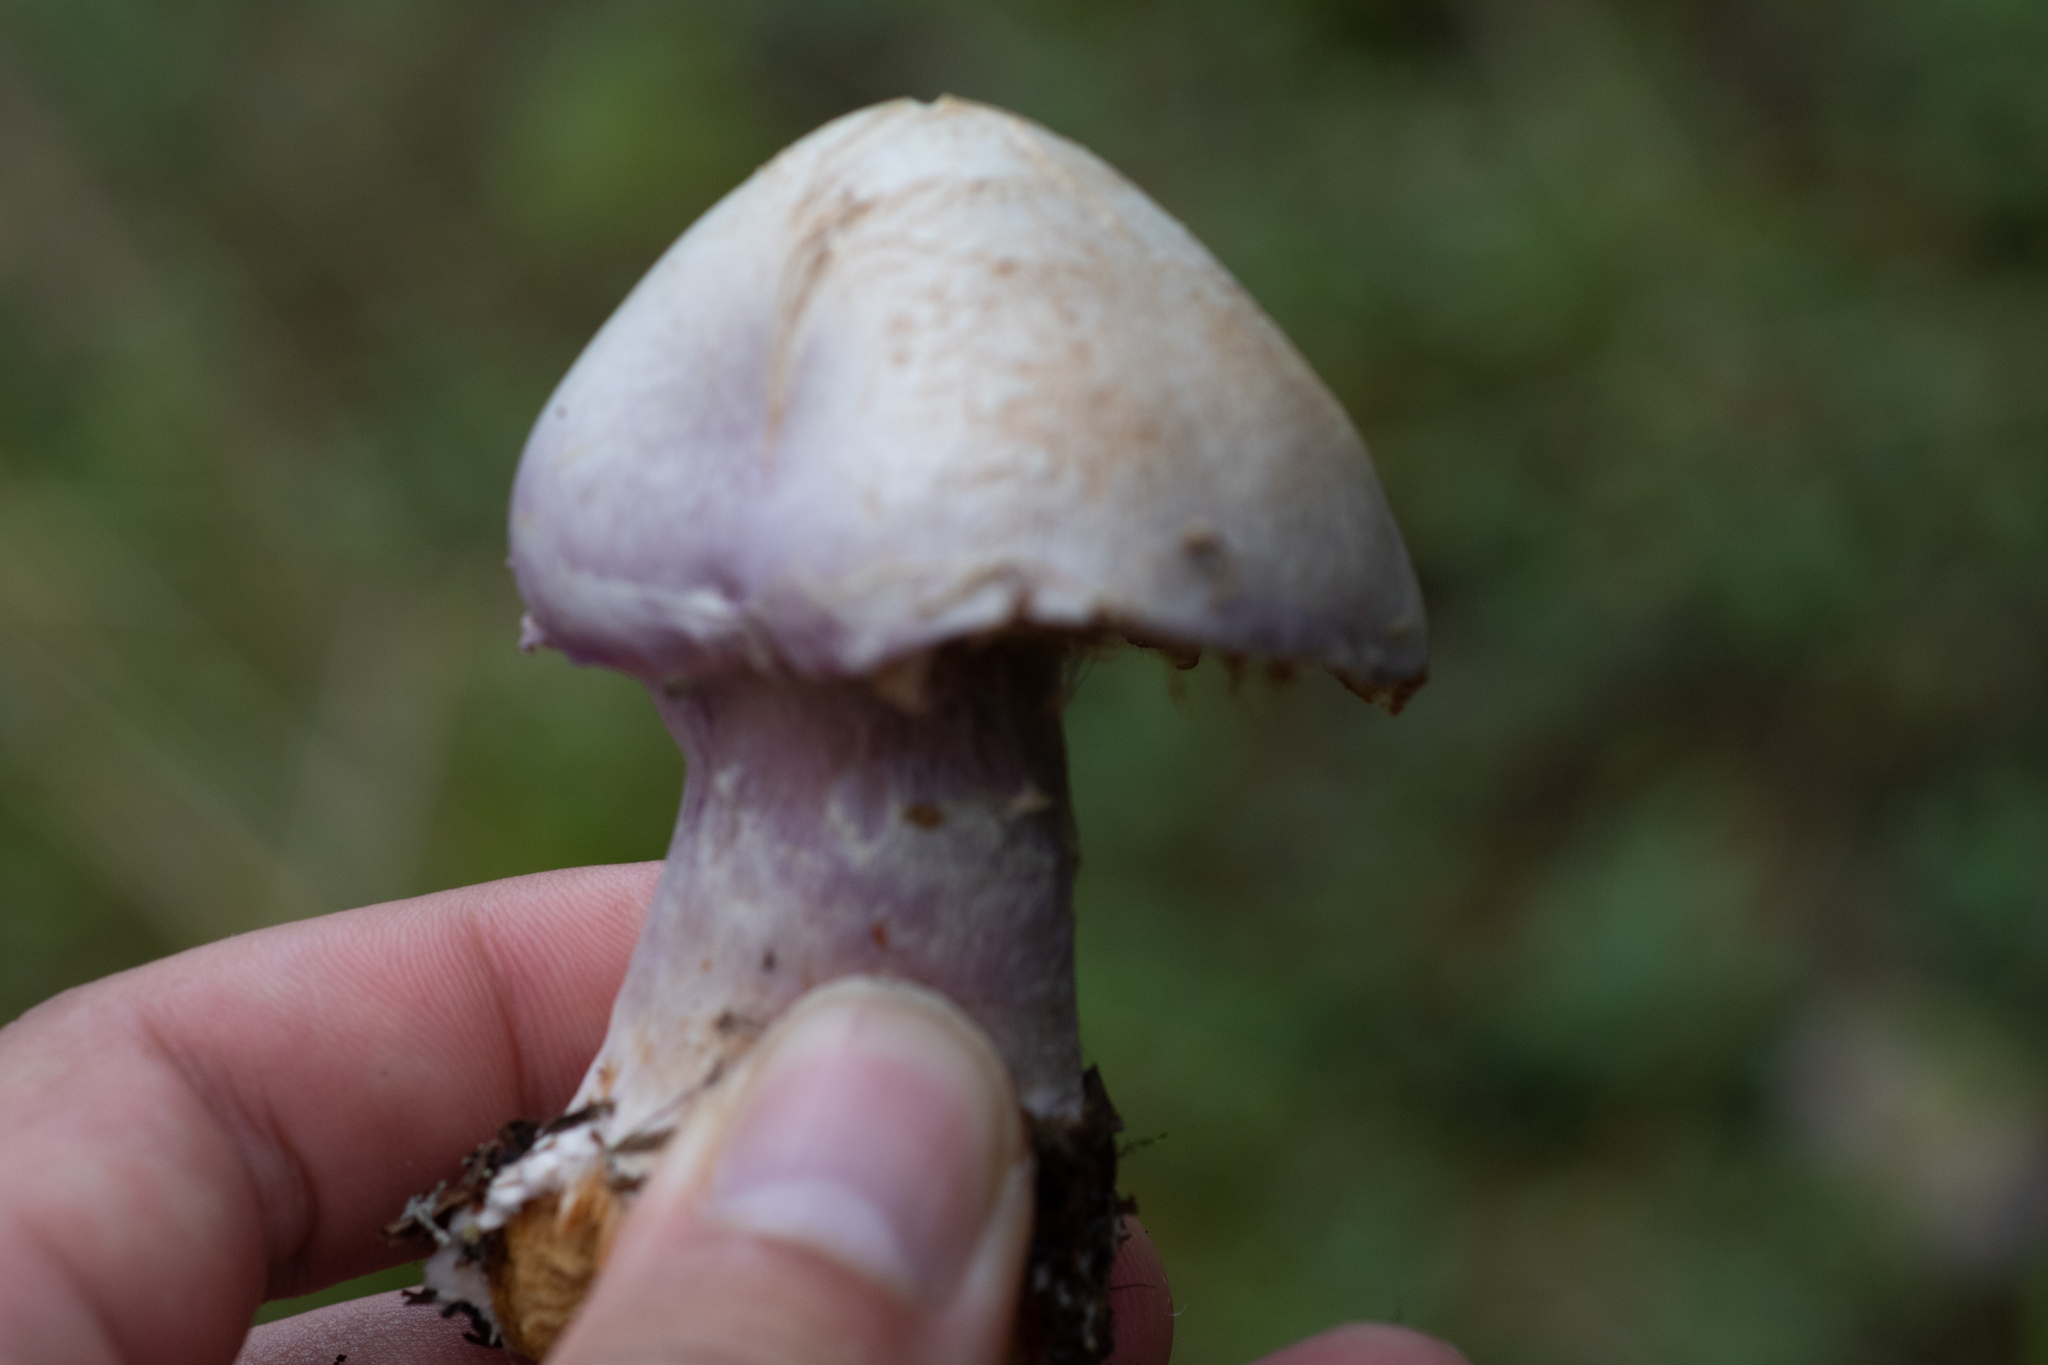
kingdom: Fungi
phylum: Basidiomycota
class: Agaricomycetes
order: Agaricales
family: Cortinariaceae
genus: Cortinarius
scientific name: Cortinarius traganus
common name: Gassy webcap
